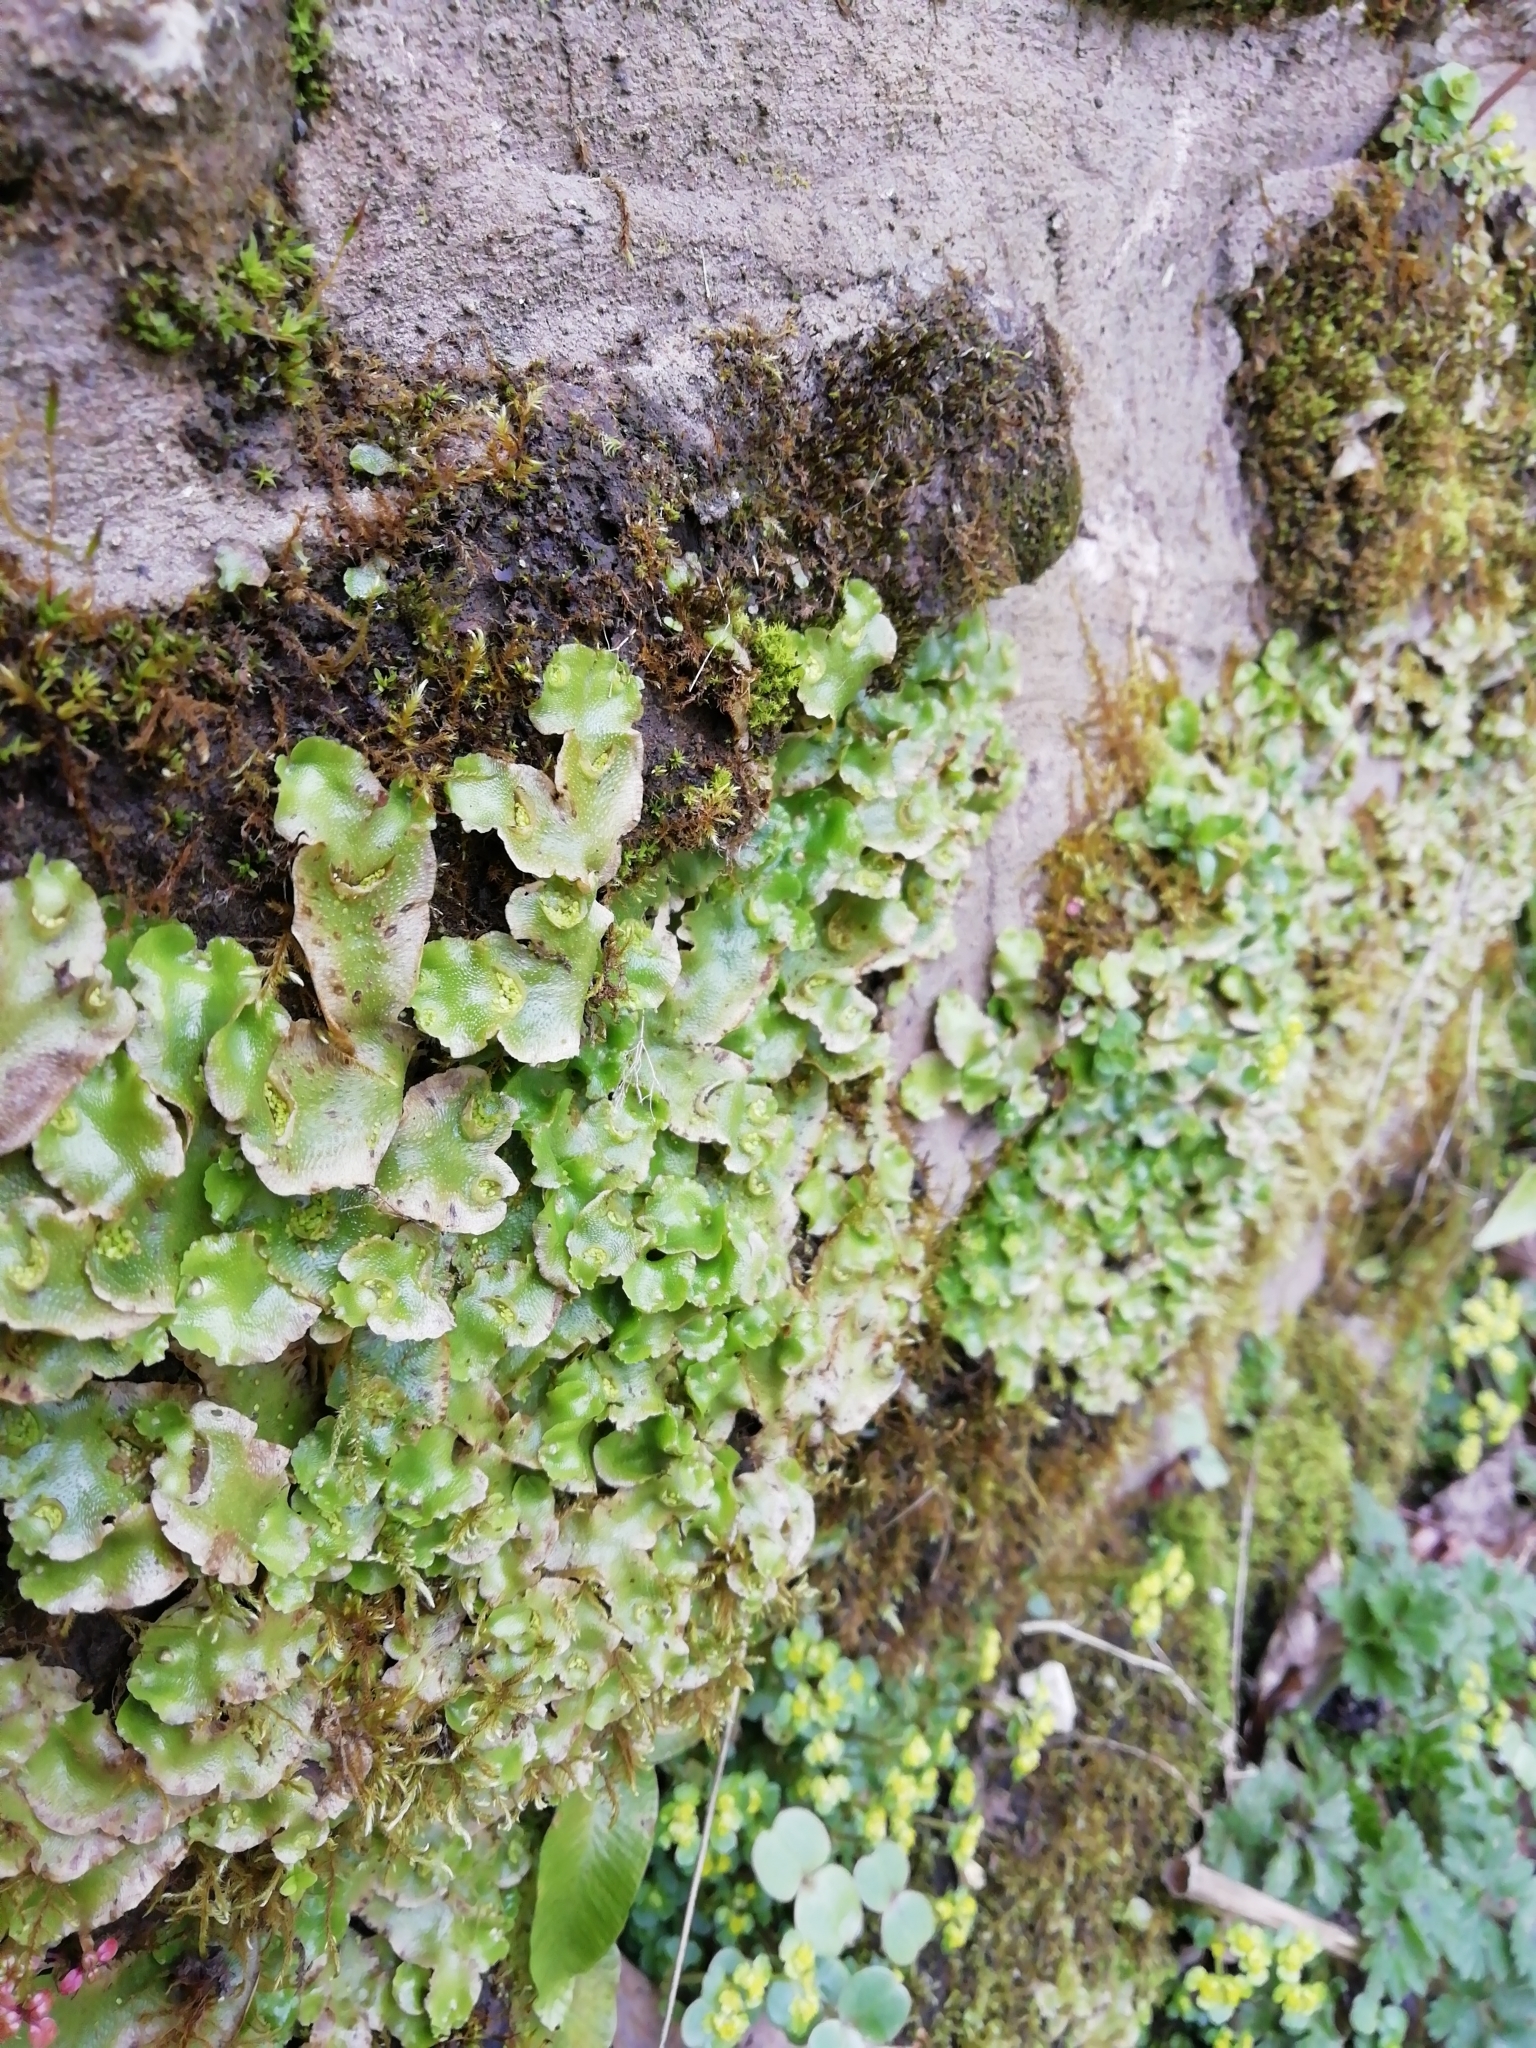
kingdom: Plantae
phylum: Marchantiophyta
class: Marchantiopsida
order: Lunulariales
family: Lunulariaceae
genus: Lunularia
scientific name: Lunularia cruciata
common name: Crescent-cup liverwort
